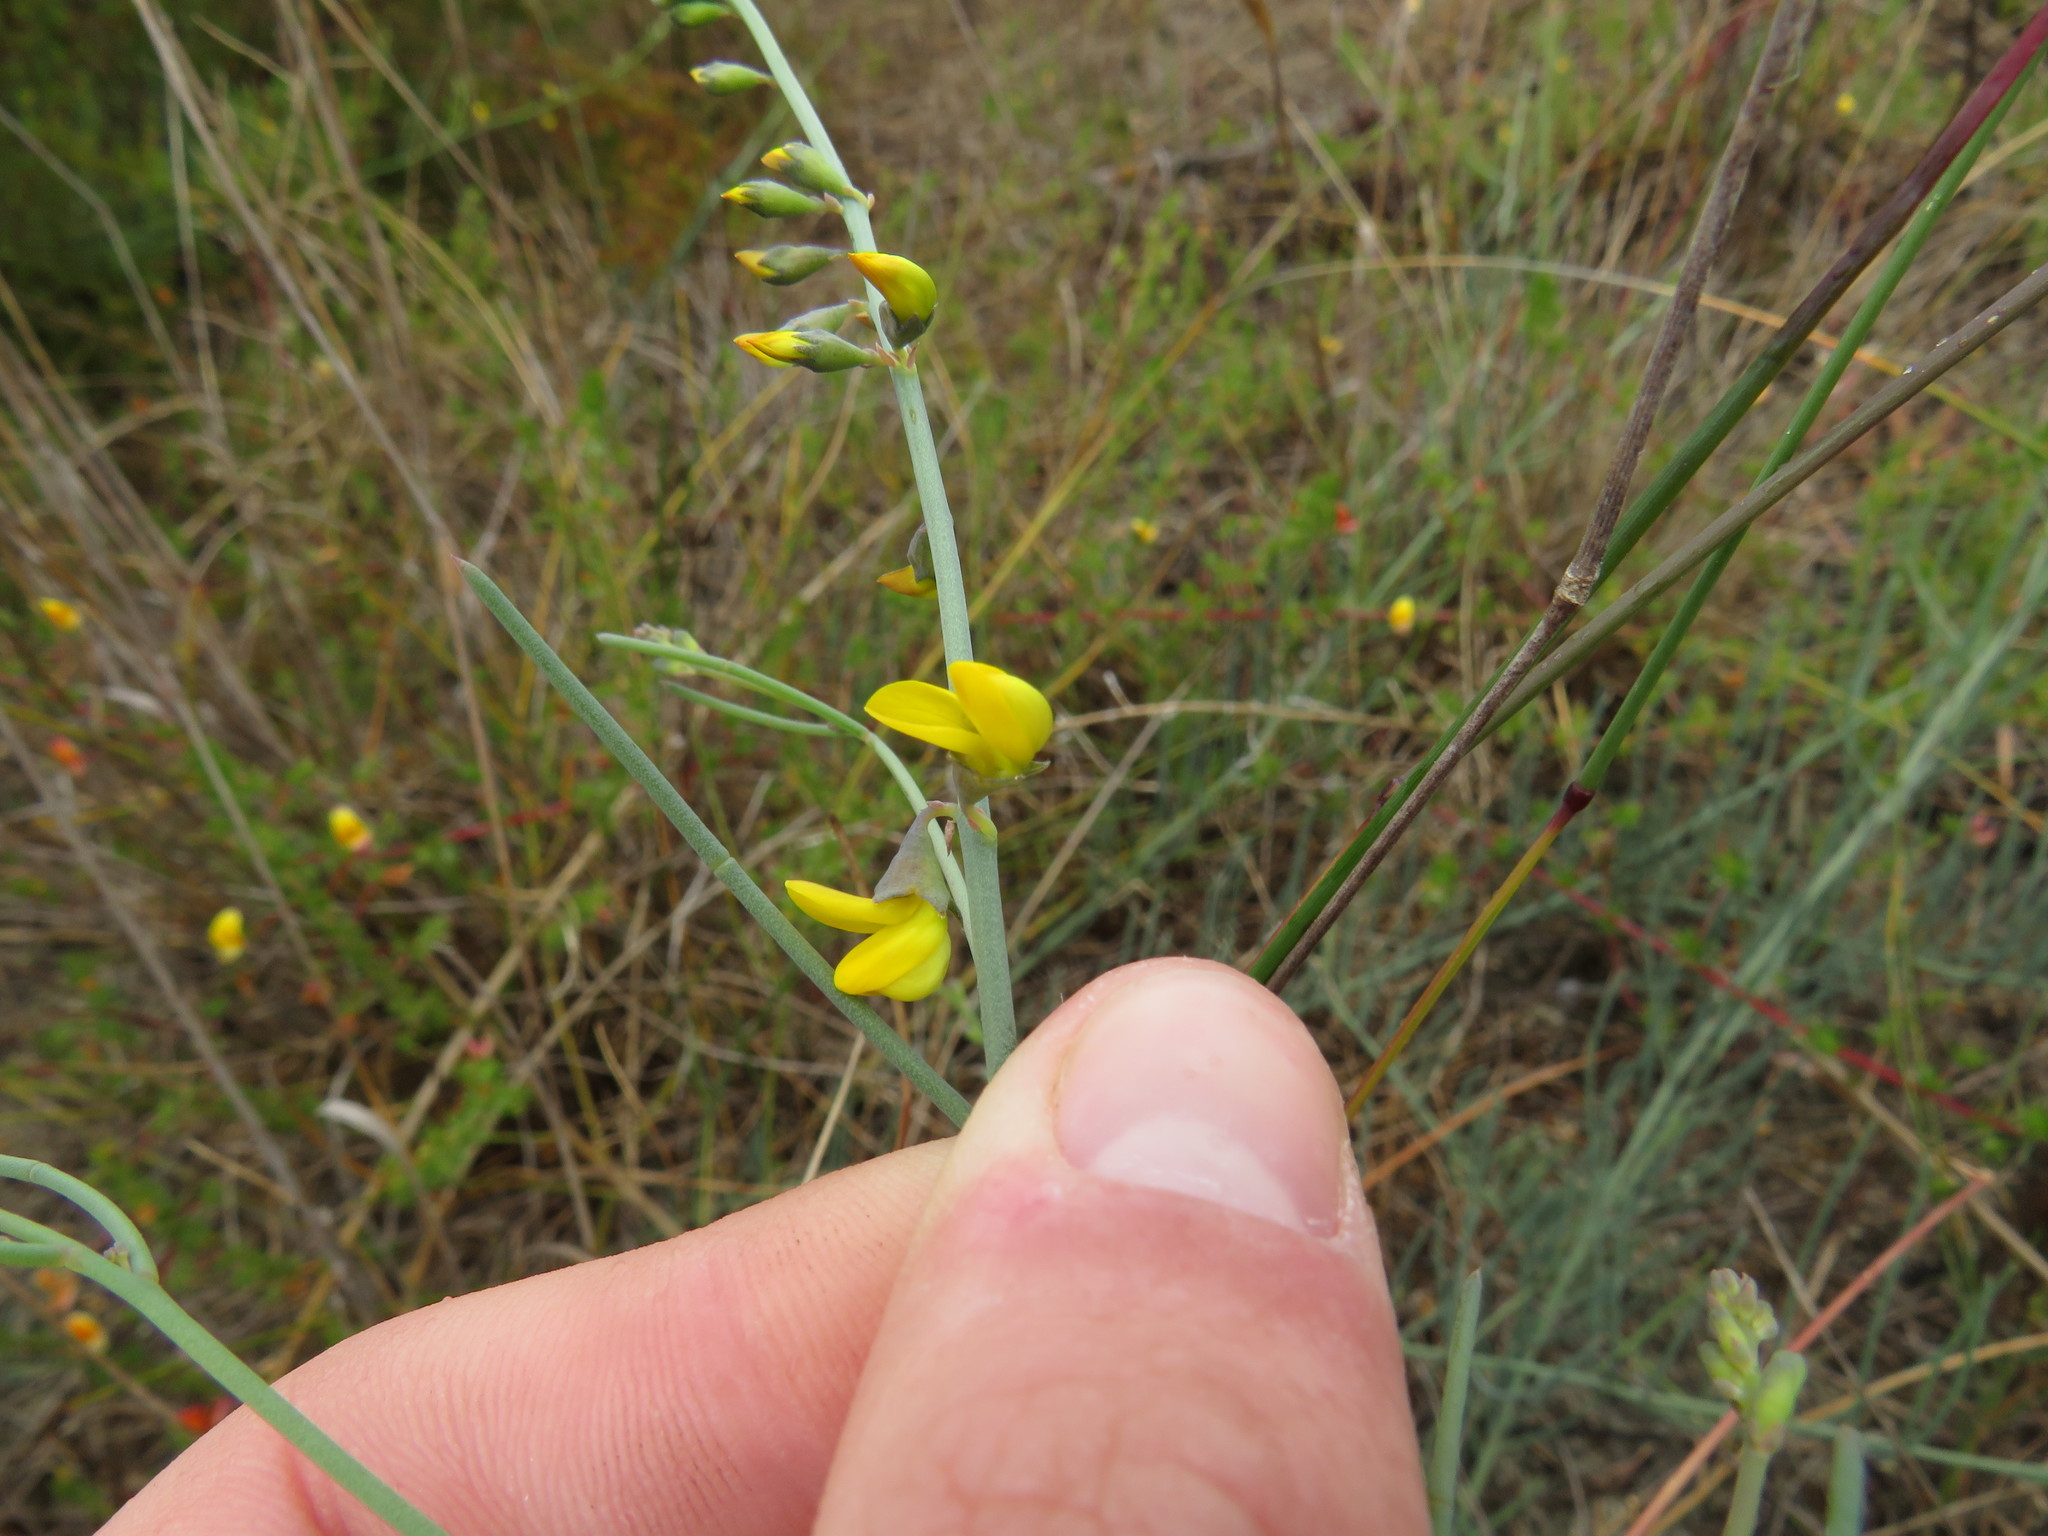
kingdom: Plantae
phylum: Tracheophyta
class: Magnoliopsida
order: Fabales
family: Fabaceae
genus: Lebeckia
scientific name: Lebeckia contaminata
